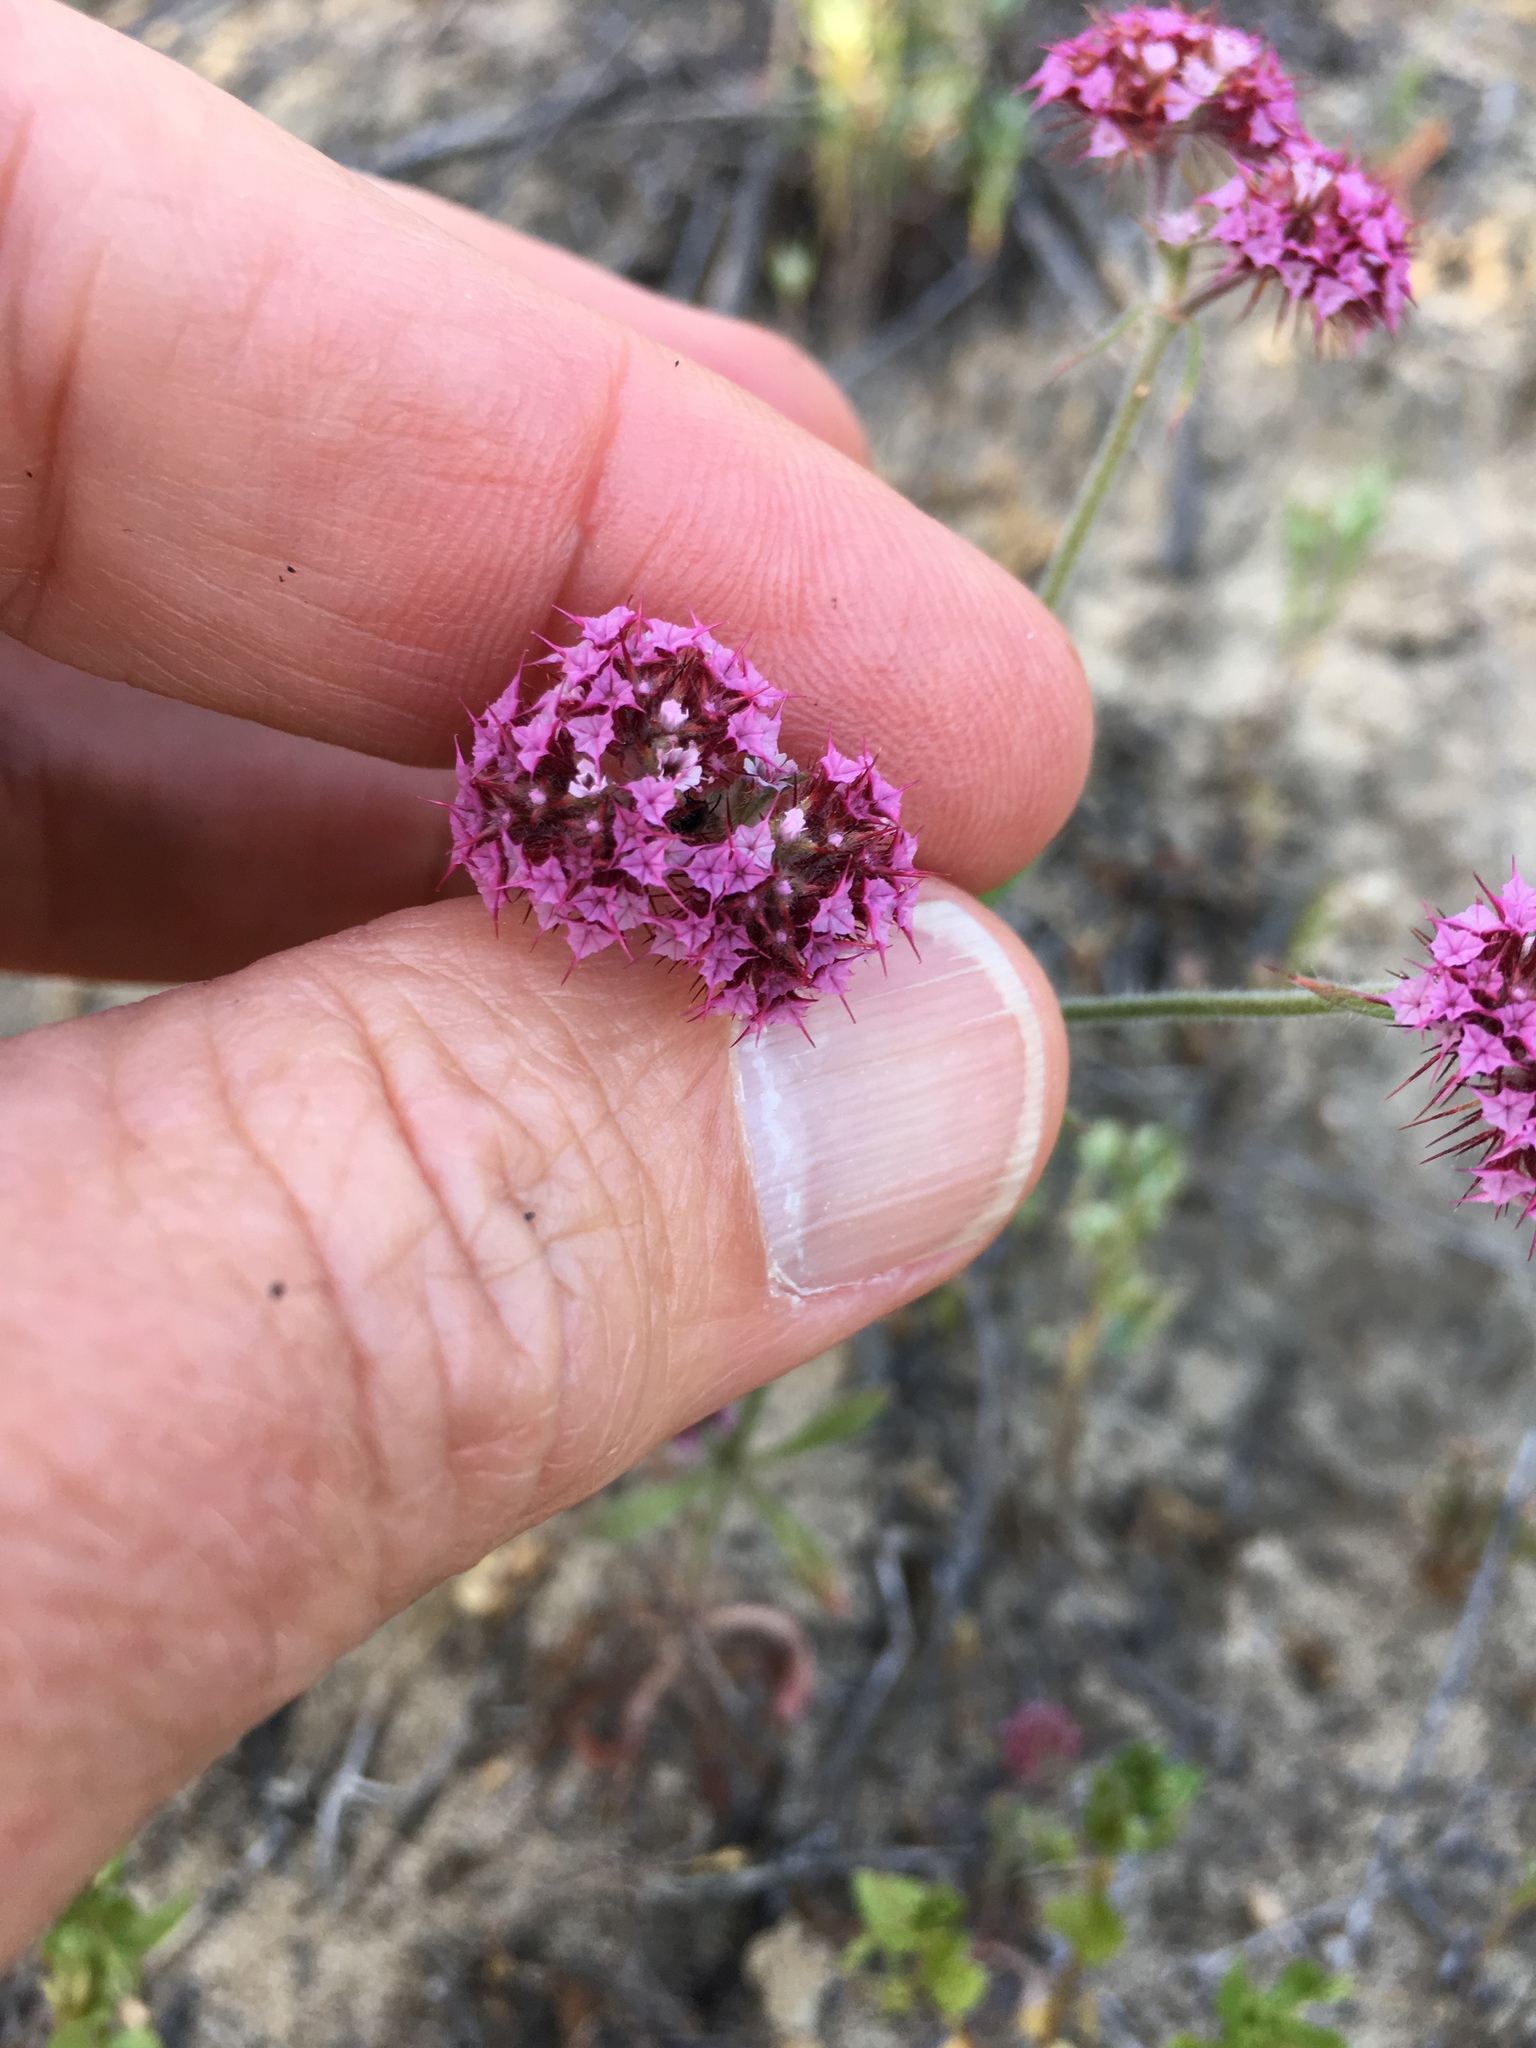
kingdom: Plantae
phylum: Tracheophyta
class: Magnoliopsida
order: Caryophyllales
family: Polygonaceae
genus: Chorizanthe
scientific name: Chorizanthe douglasii
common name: Douglas's spineflower
